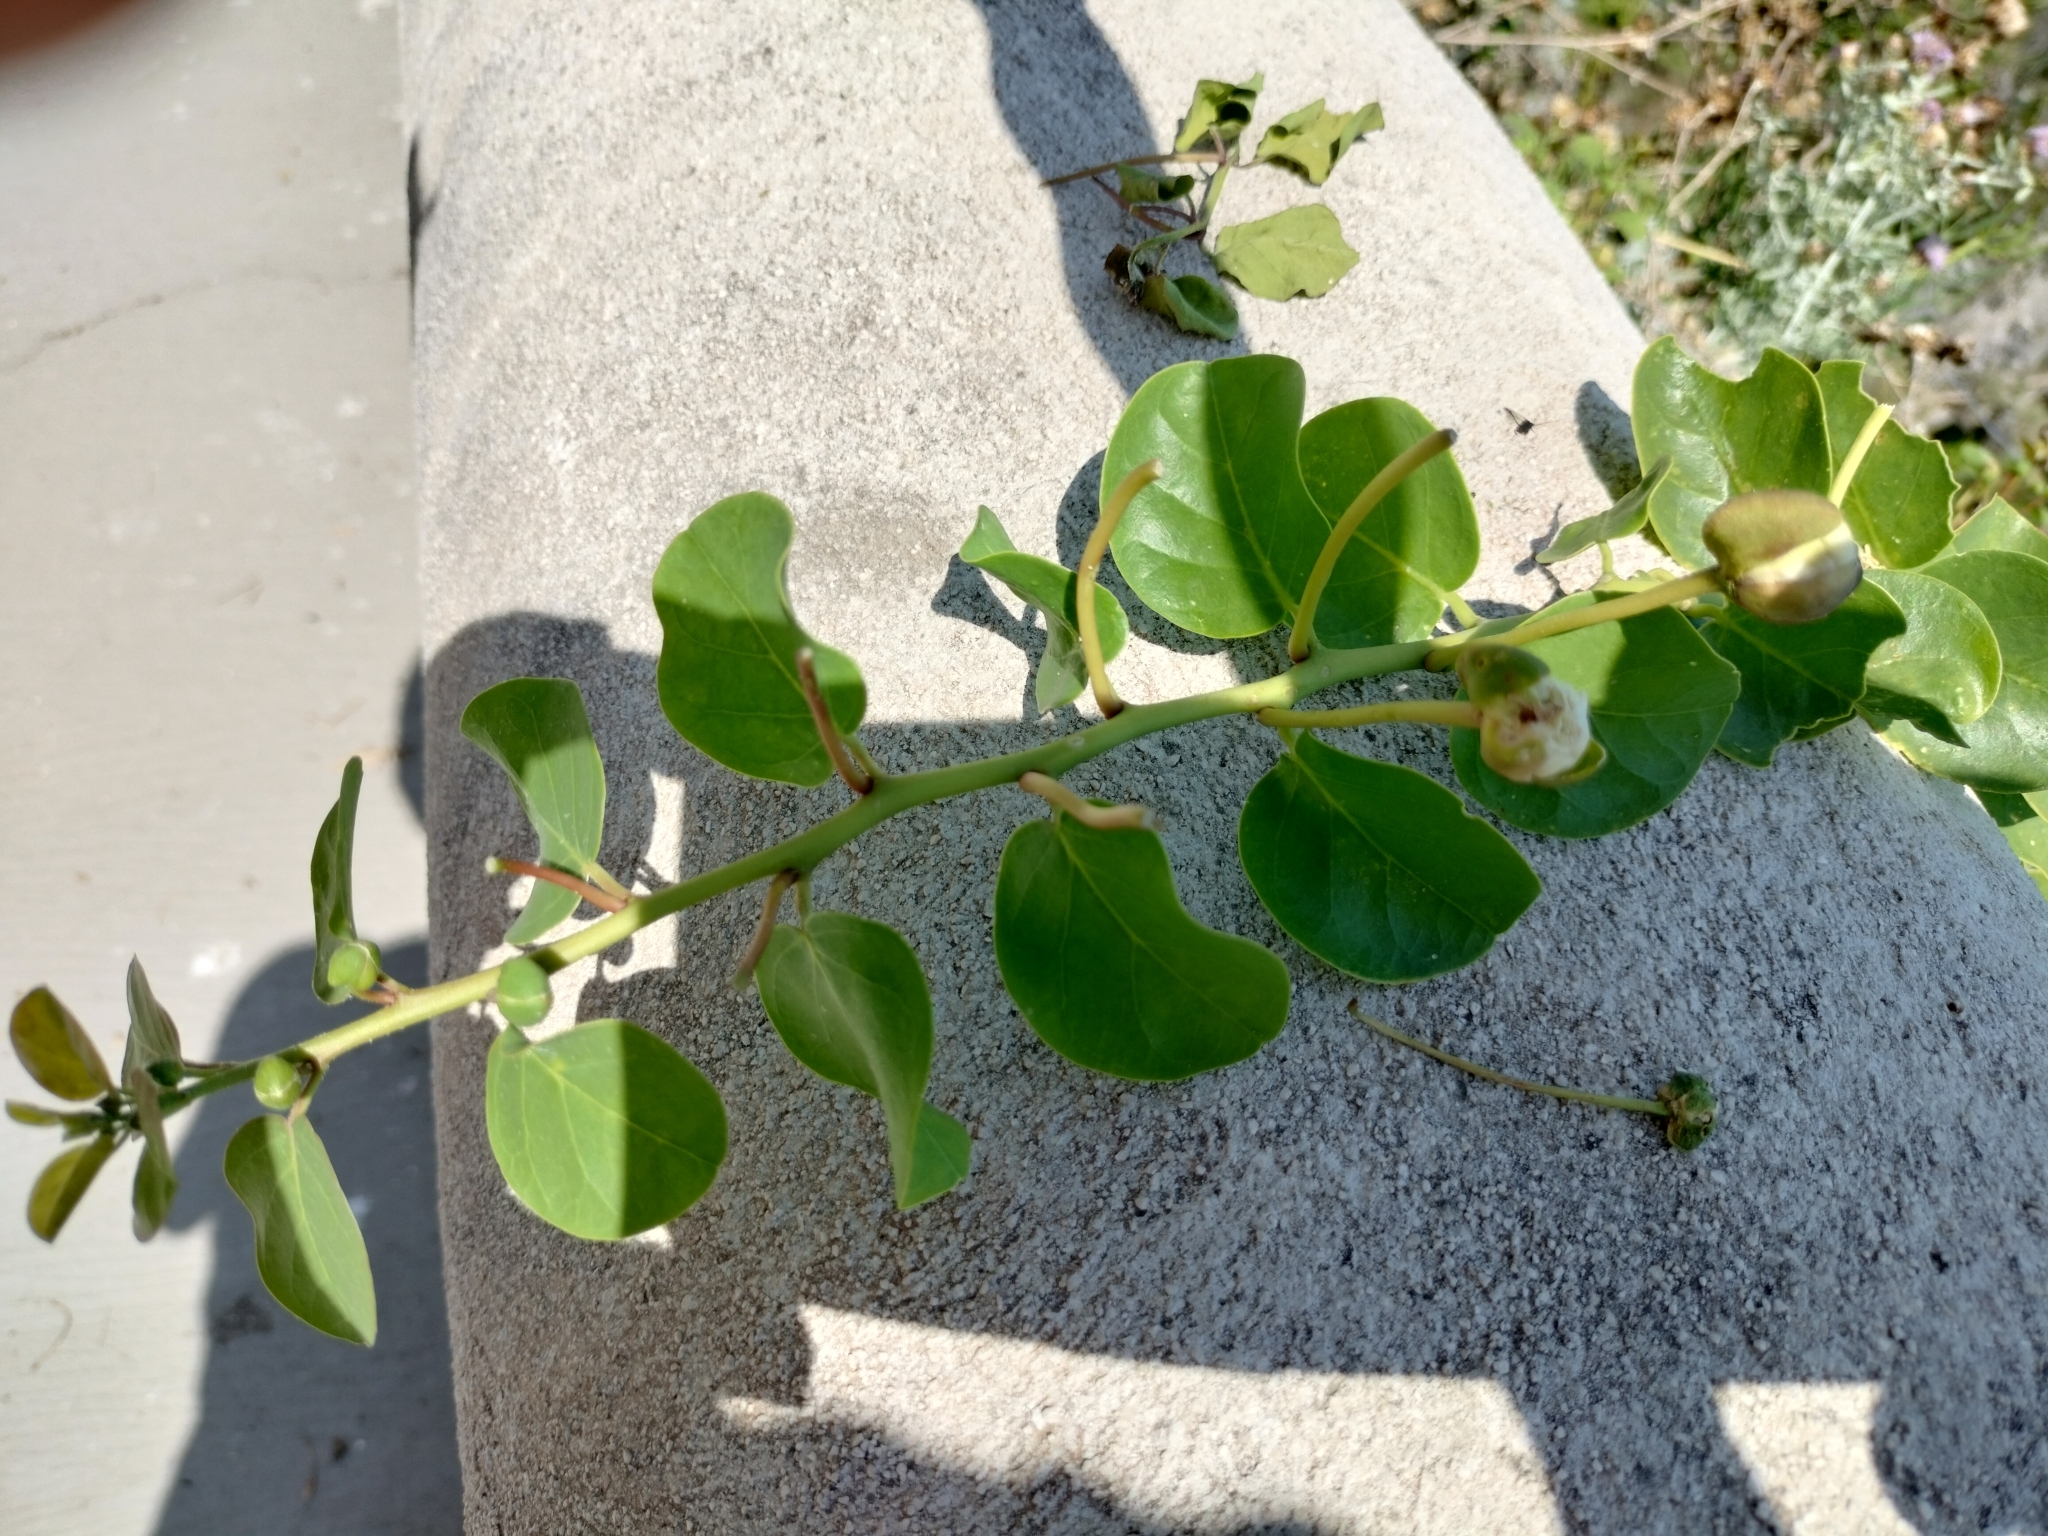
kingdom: Plantae
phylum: Tracheophyta
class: Magnoliopsida
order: Brassicales
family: Capparaceae
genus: Capparis
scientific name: Capparis orientalis
